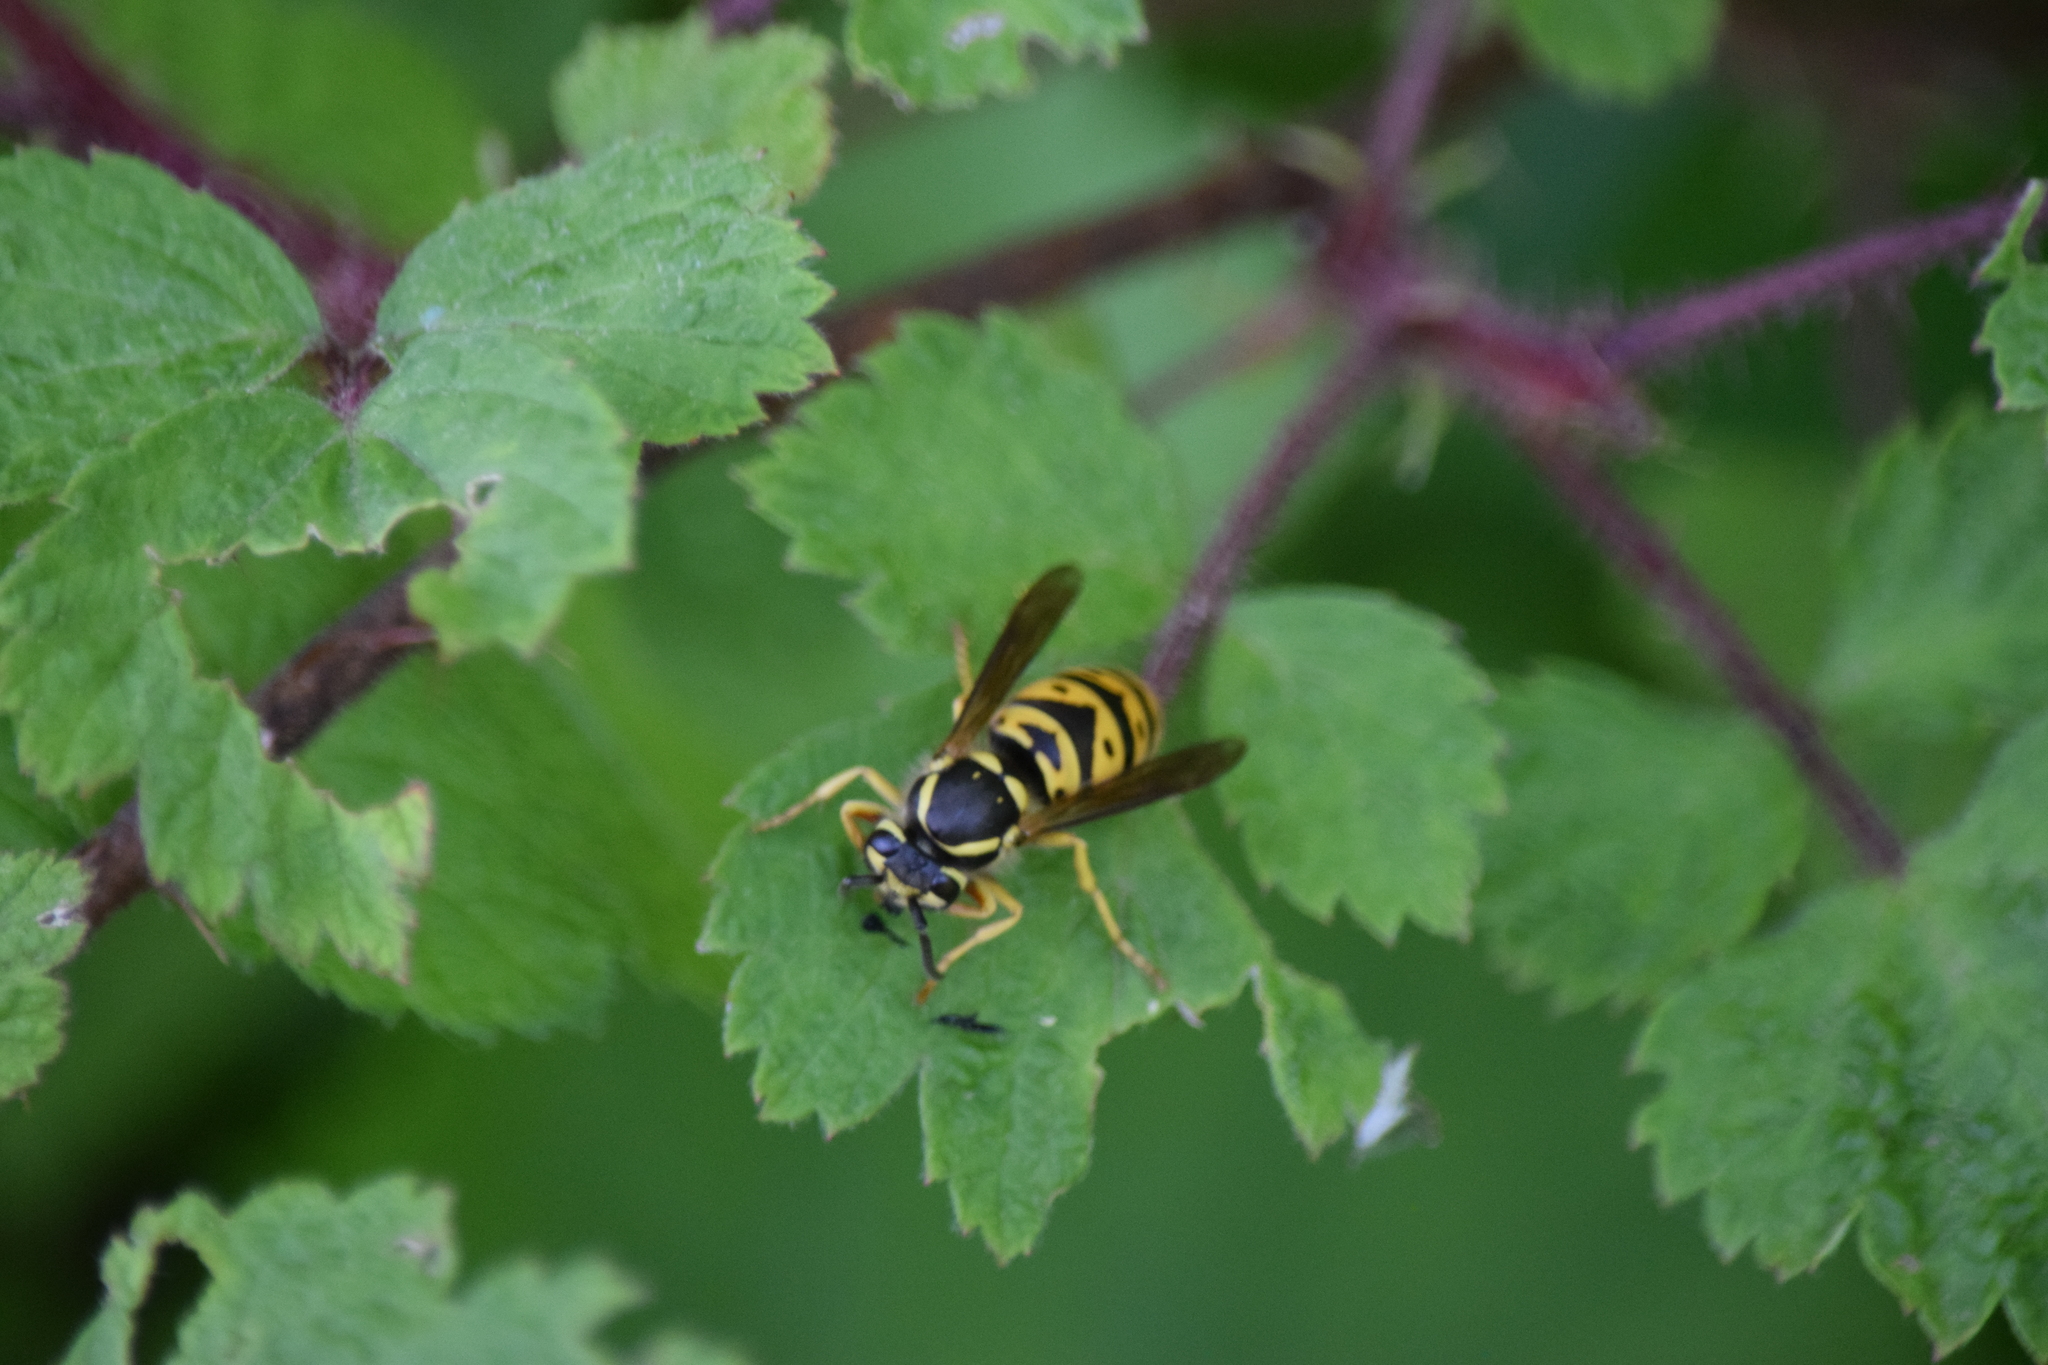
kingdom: Animalia
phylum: Arthropoda
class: Insecta
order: Hymenoptera
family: Vespidae
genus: Vespula
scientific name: Vespula maculifrons
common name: Eastern yellowjacket
